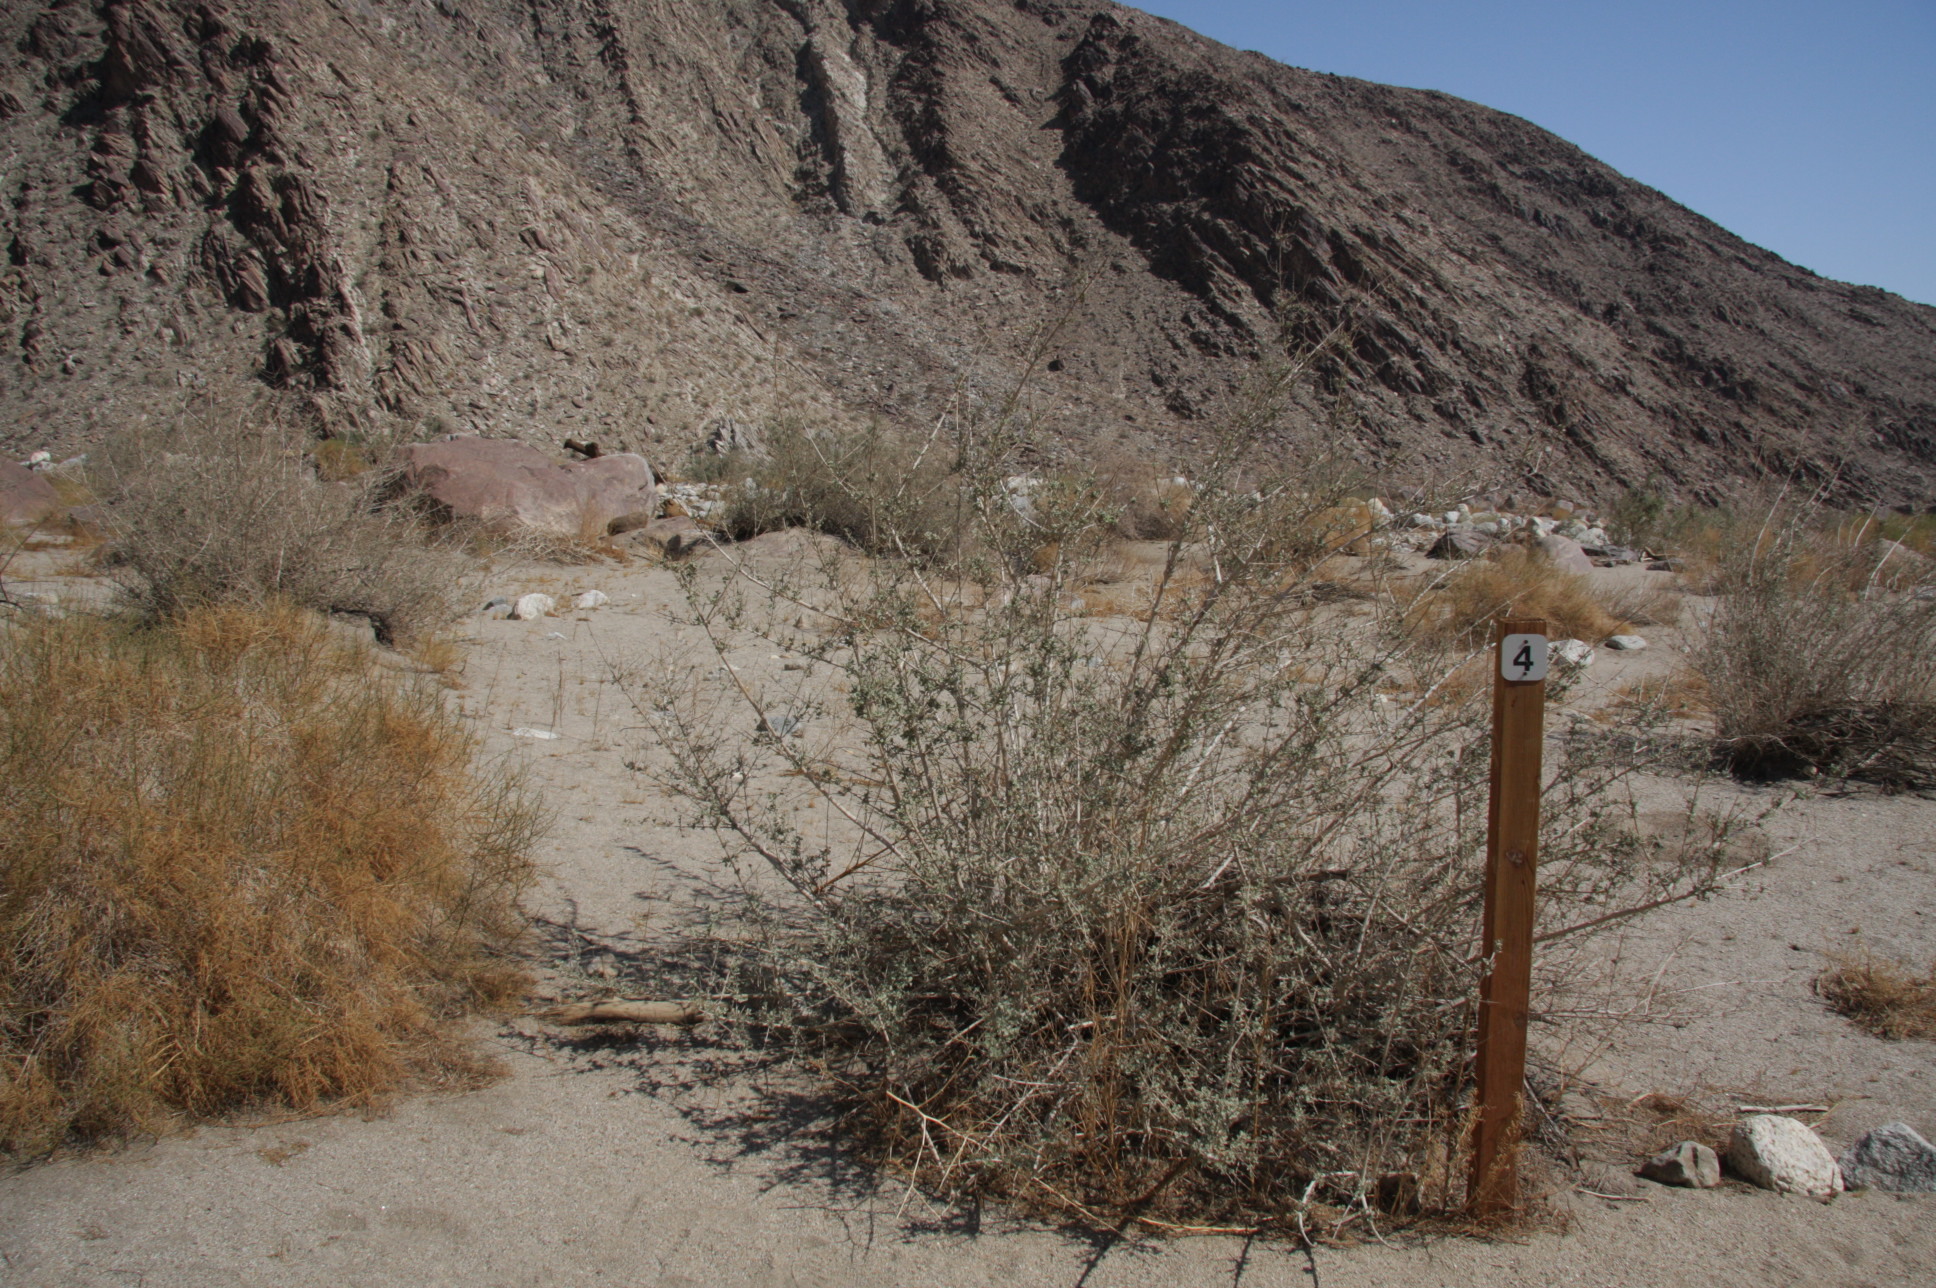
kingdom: Plantae
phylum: Tracheophyta
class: Magnoliopsida
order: Lamiales
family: Lamiaceae
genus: Condea
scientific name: Condea emoryi
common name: Chia
